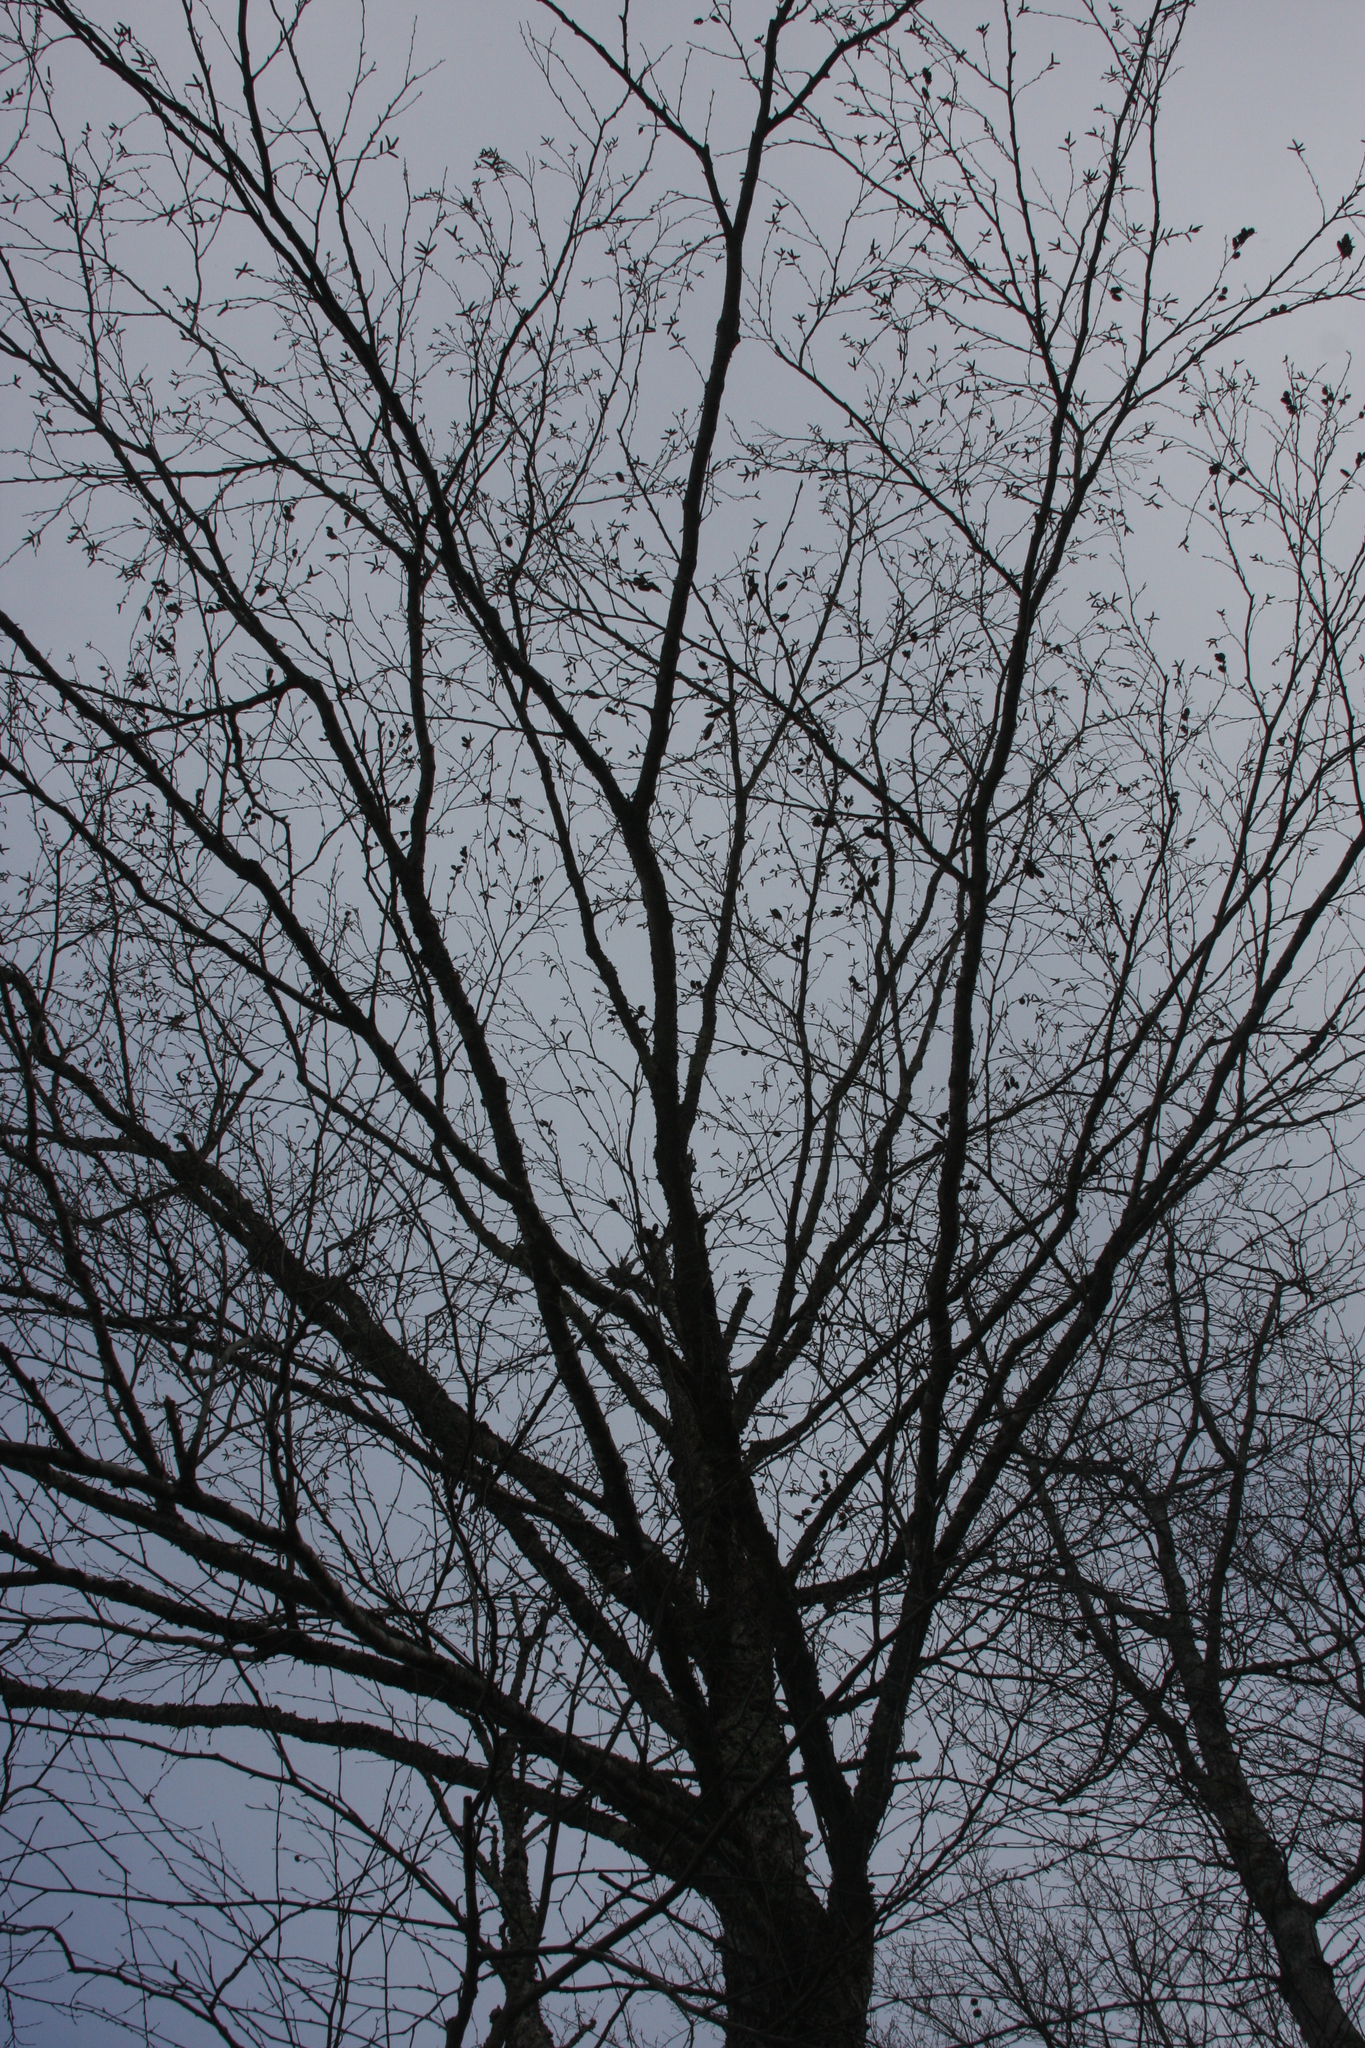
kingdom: Plantae
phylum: Tracheophyta
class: Magnoliopsida
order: Fagales
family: Betulaceae
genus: Betula
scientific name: Betula alleghaniensis
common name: Yellow birch
